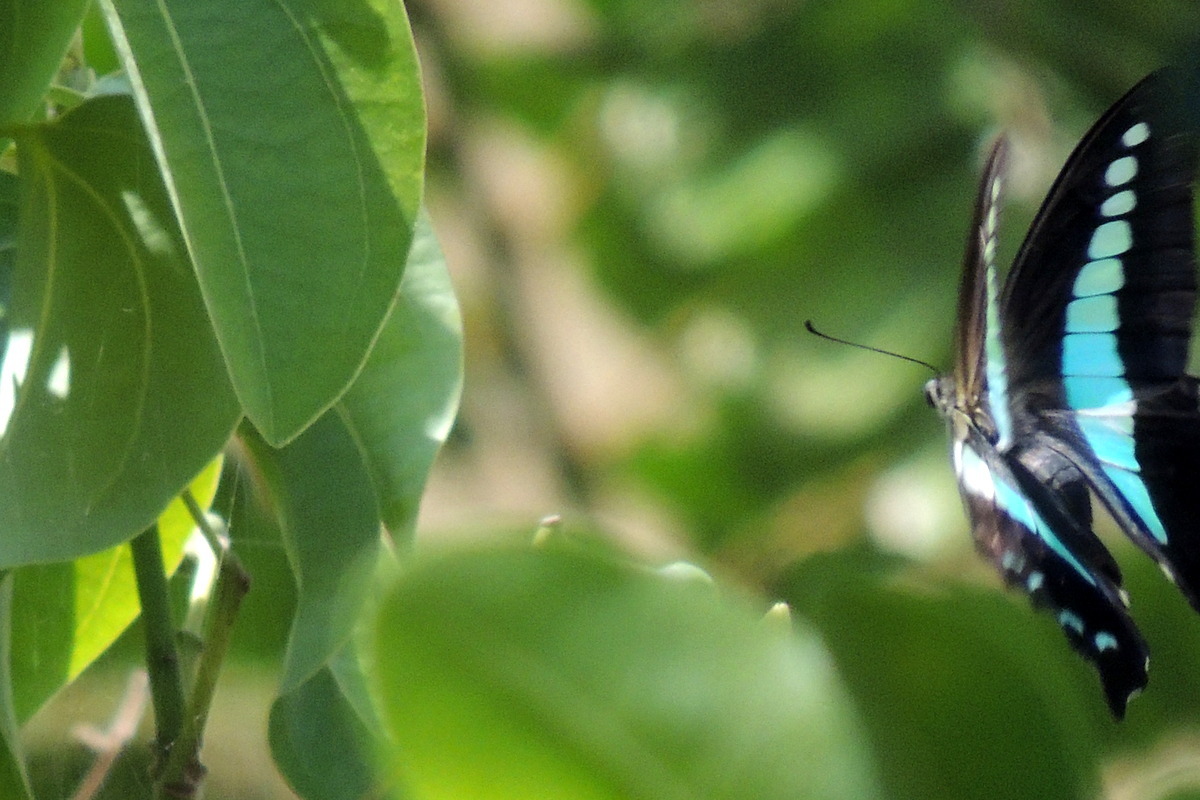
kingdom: Animalia
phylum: Arthropoda
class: Insecta
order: Lepidoptera
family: Papilionidae
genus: Graphium
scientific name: Graphium
